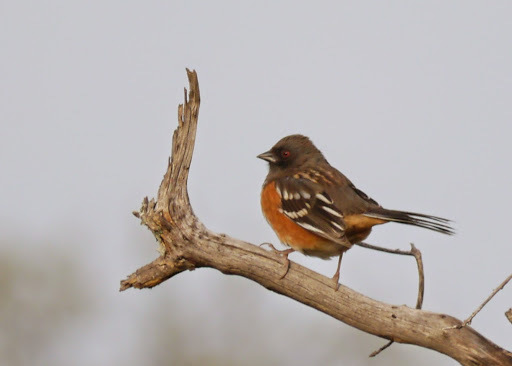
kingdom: Animalia
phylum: Chordata
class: Aves
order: Passeriformes
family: Passerellidae
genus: Pipilo
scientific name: Pipilo maculatus
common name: Spotted towhee
